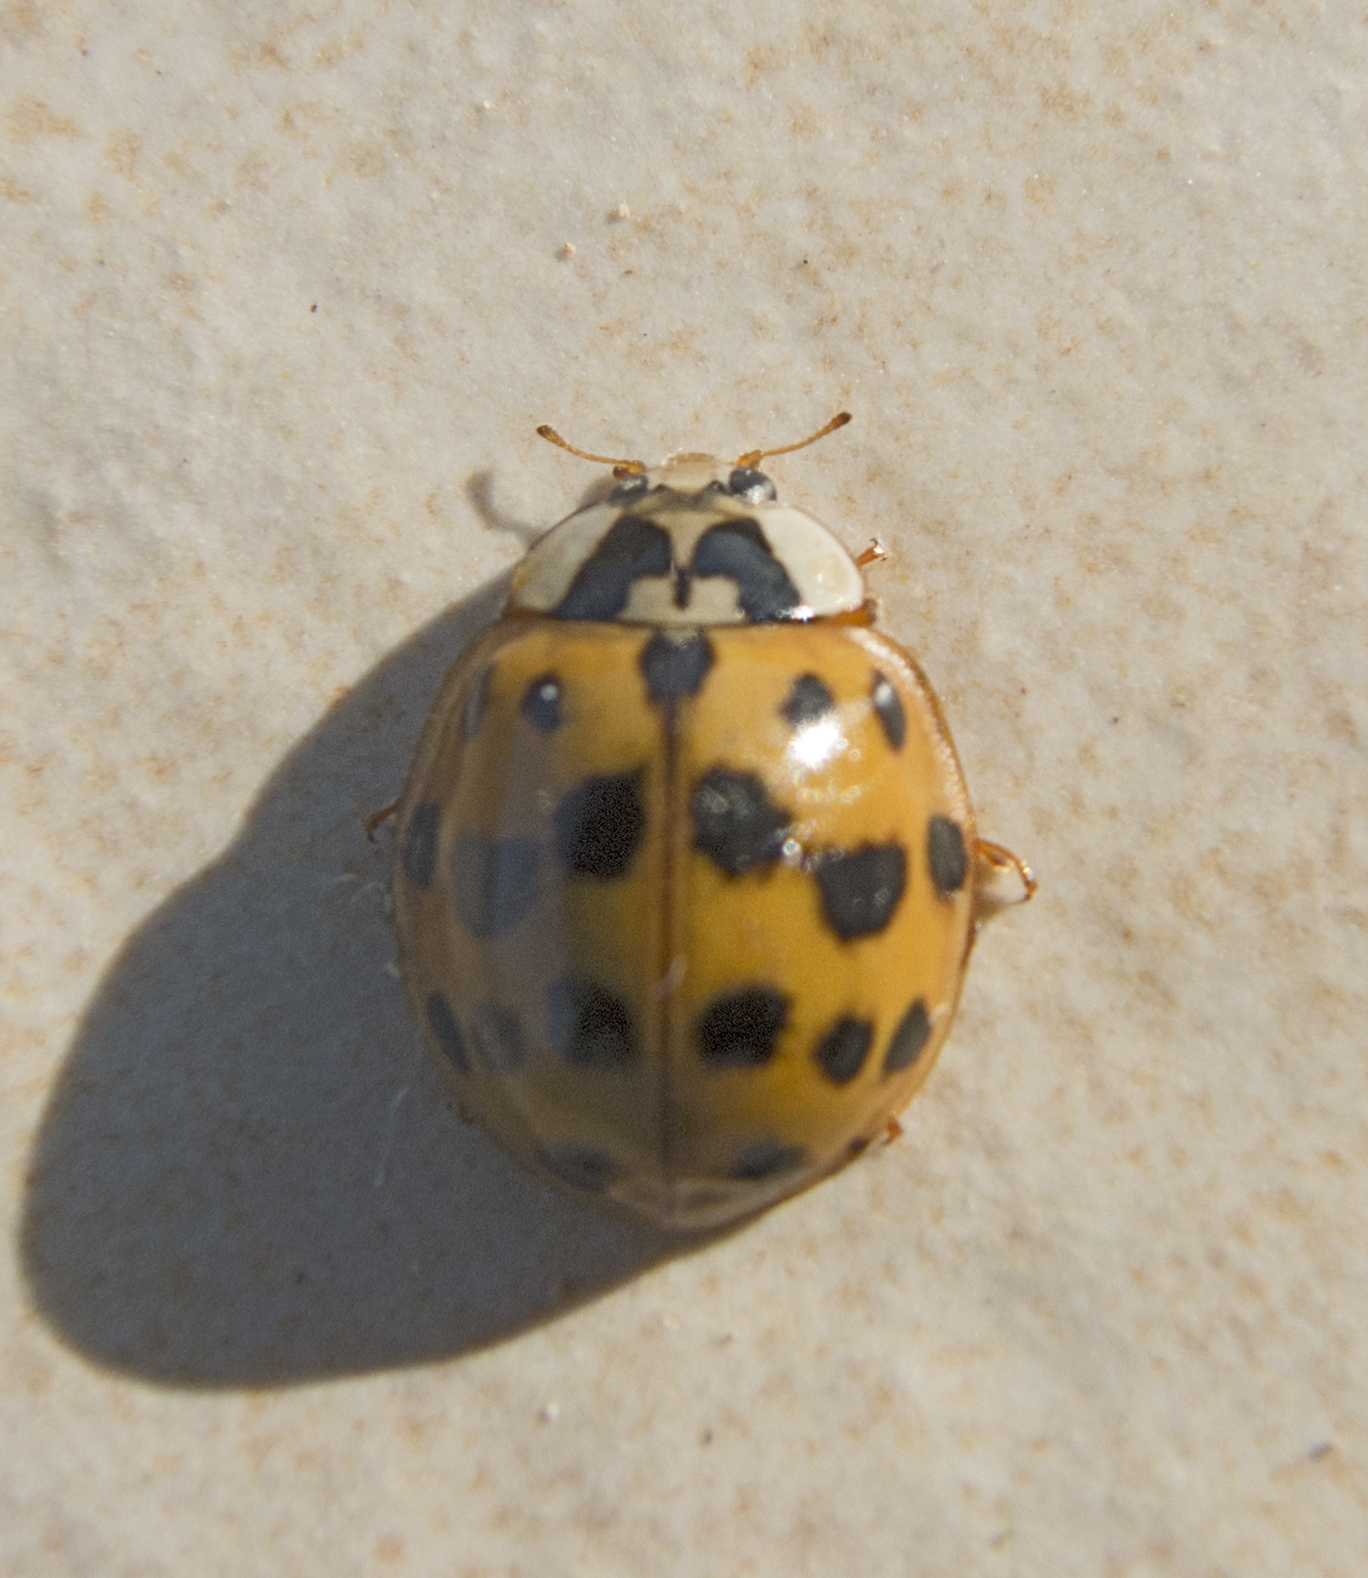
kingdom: Animalia
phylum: Arthropoda
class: Insecta
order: Coleoptera
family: Coccinellidae
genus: Harmonia
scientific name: Harmonia axyridis
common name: Harlequin ladybird
